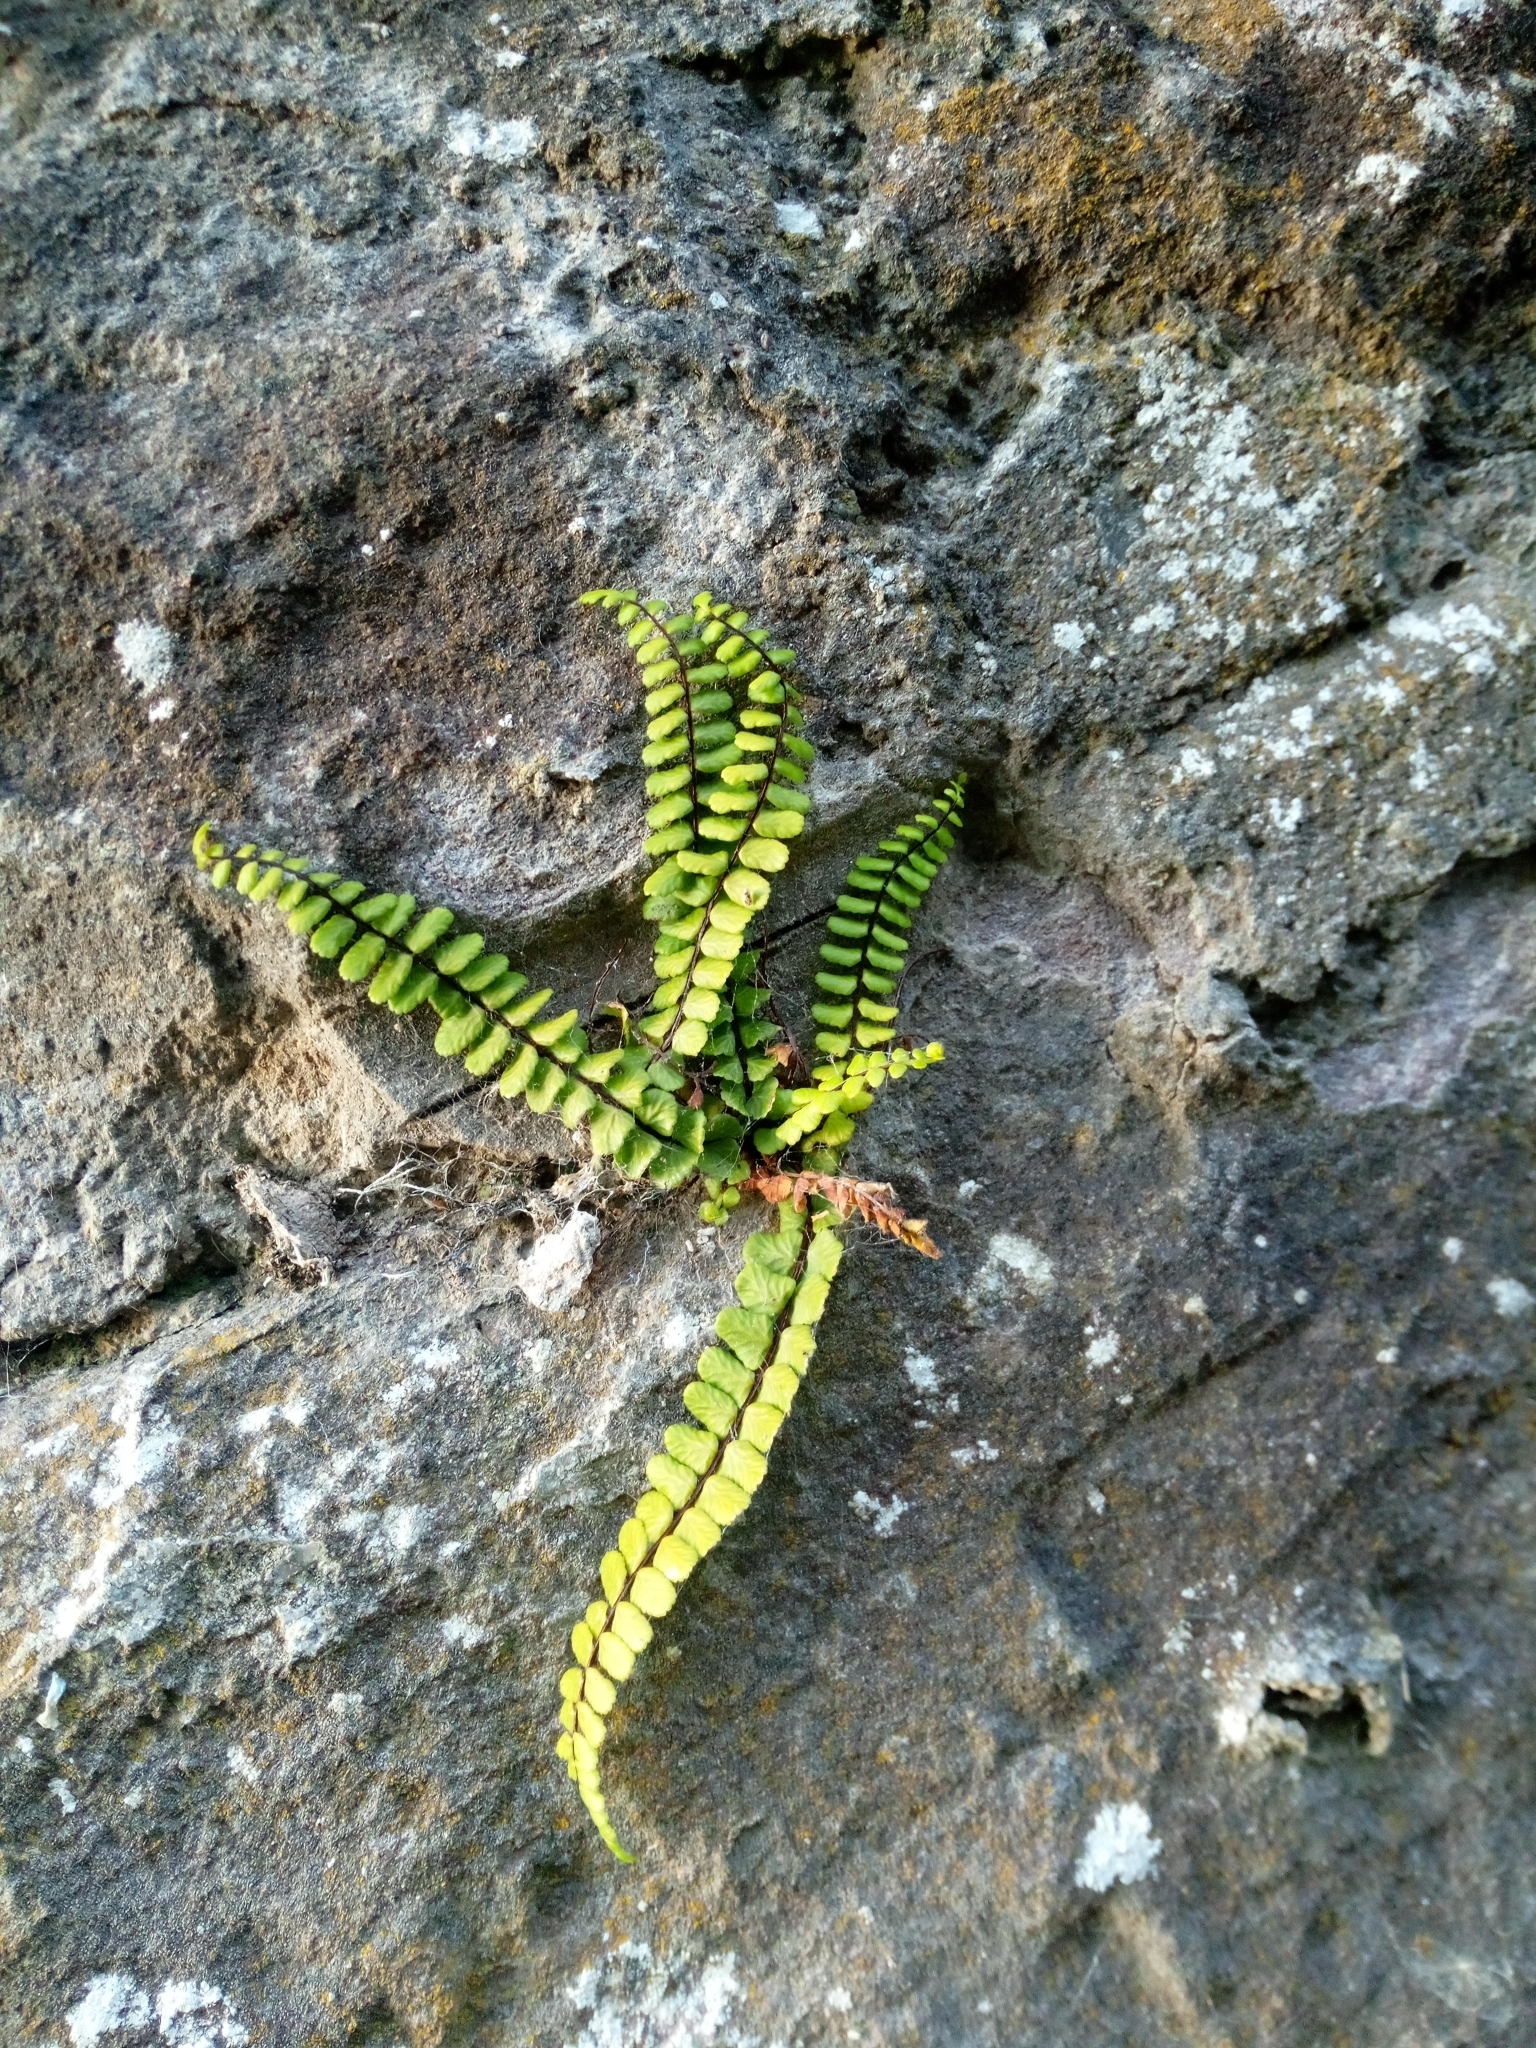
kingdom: Plantae
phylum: Tracheophyta
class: Polypodiopsida
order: Polypodiales
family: Aspleniaceae
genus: Asplenium
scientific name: Asplenium trichomanes
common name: Maidenhair spleenwort
